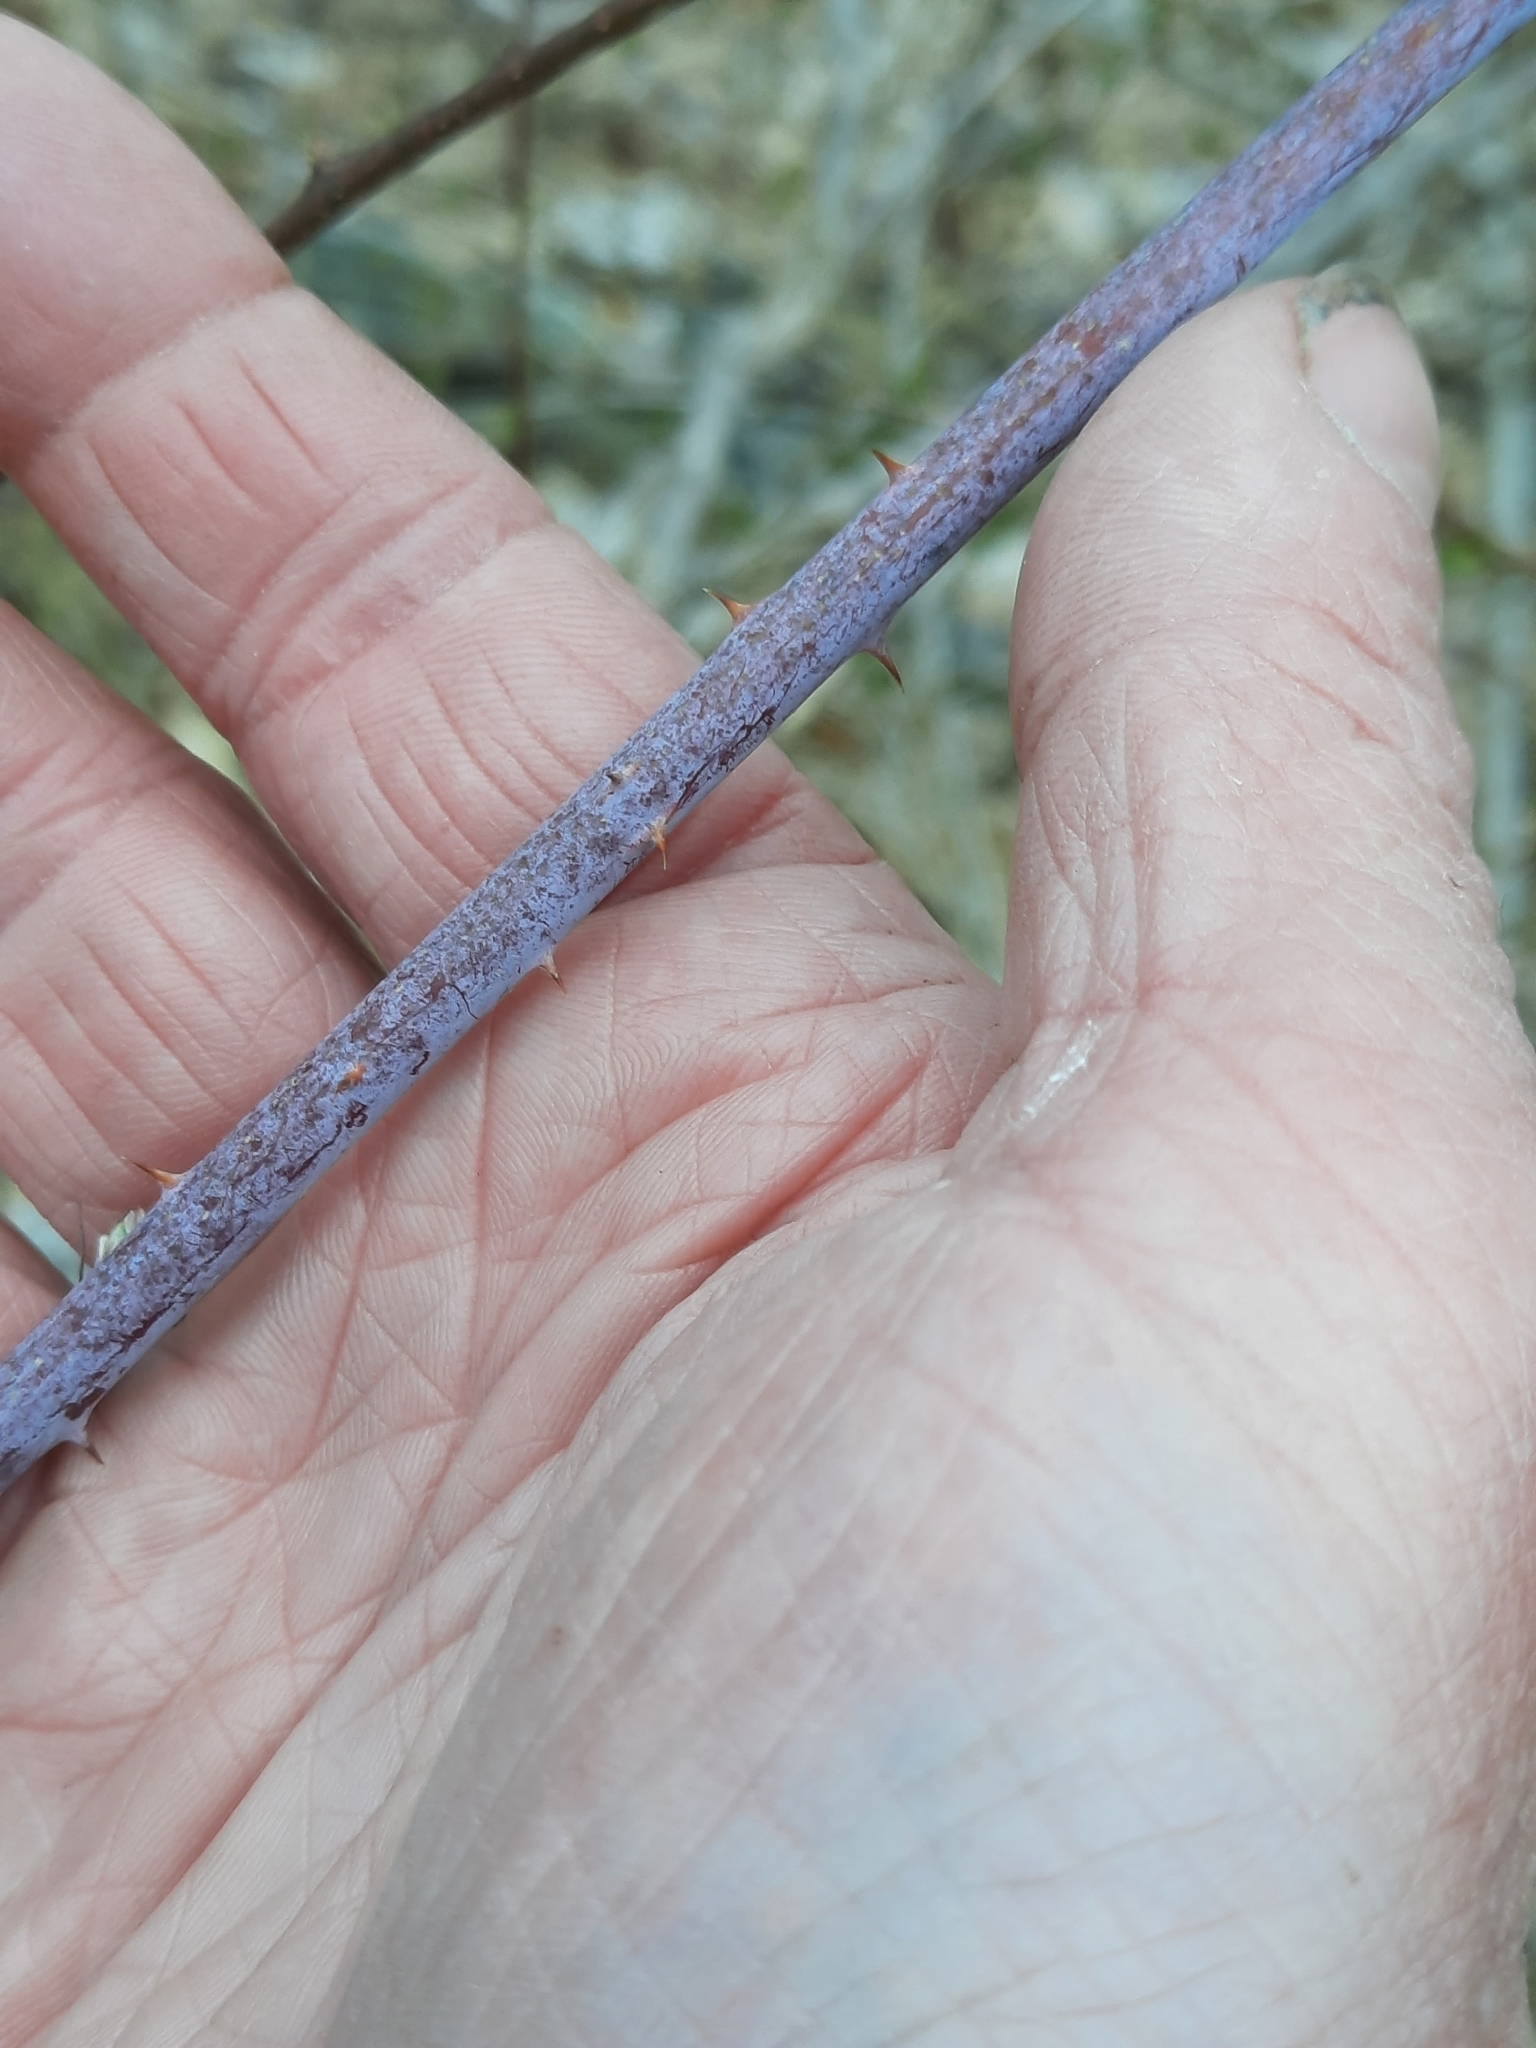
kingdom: Plantae
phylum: Tracheophyta
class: Magnoliopsida
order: Rosales
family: Rosaceae
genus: Rubus
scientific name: Rubus occidentalis
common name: Black raspberry
